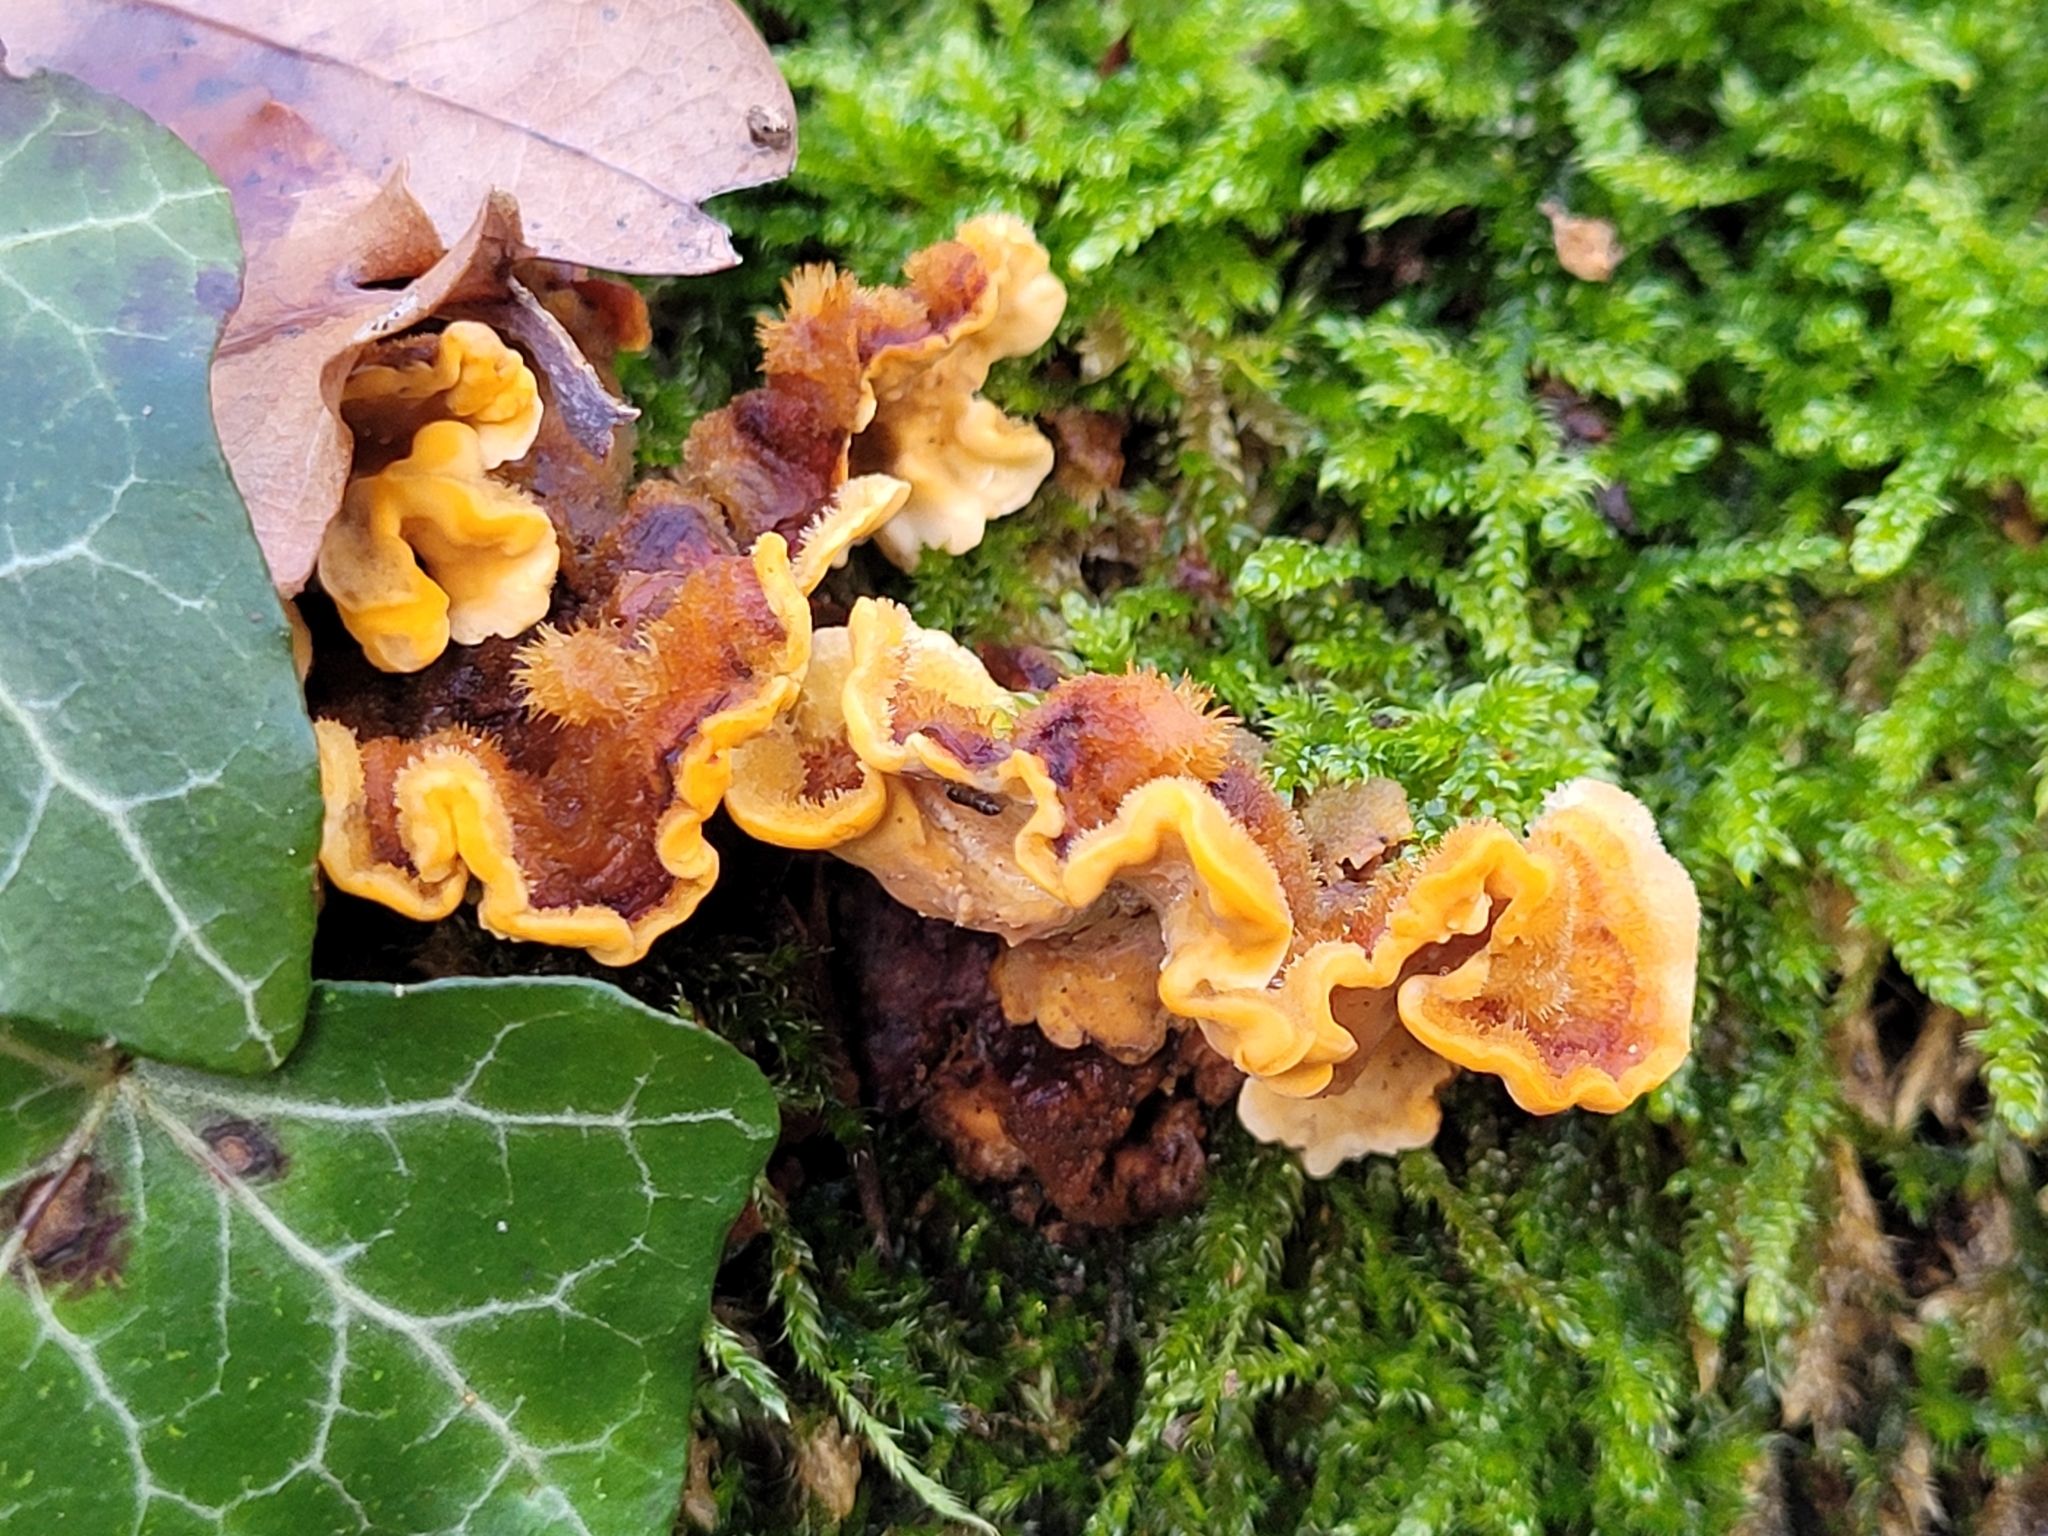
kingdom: Fungi
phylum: Basidiomycota
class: Agaricomycetes
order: Russulales
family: Stereaceae
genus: Stereum
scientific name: Stereum hirsutum
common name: Hairy curtain crust
